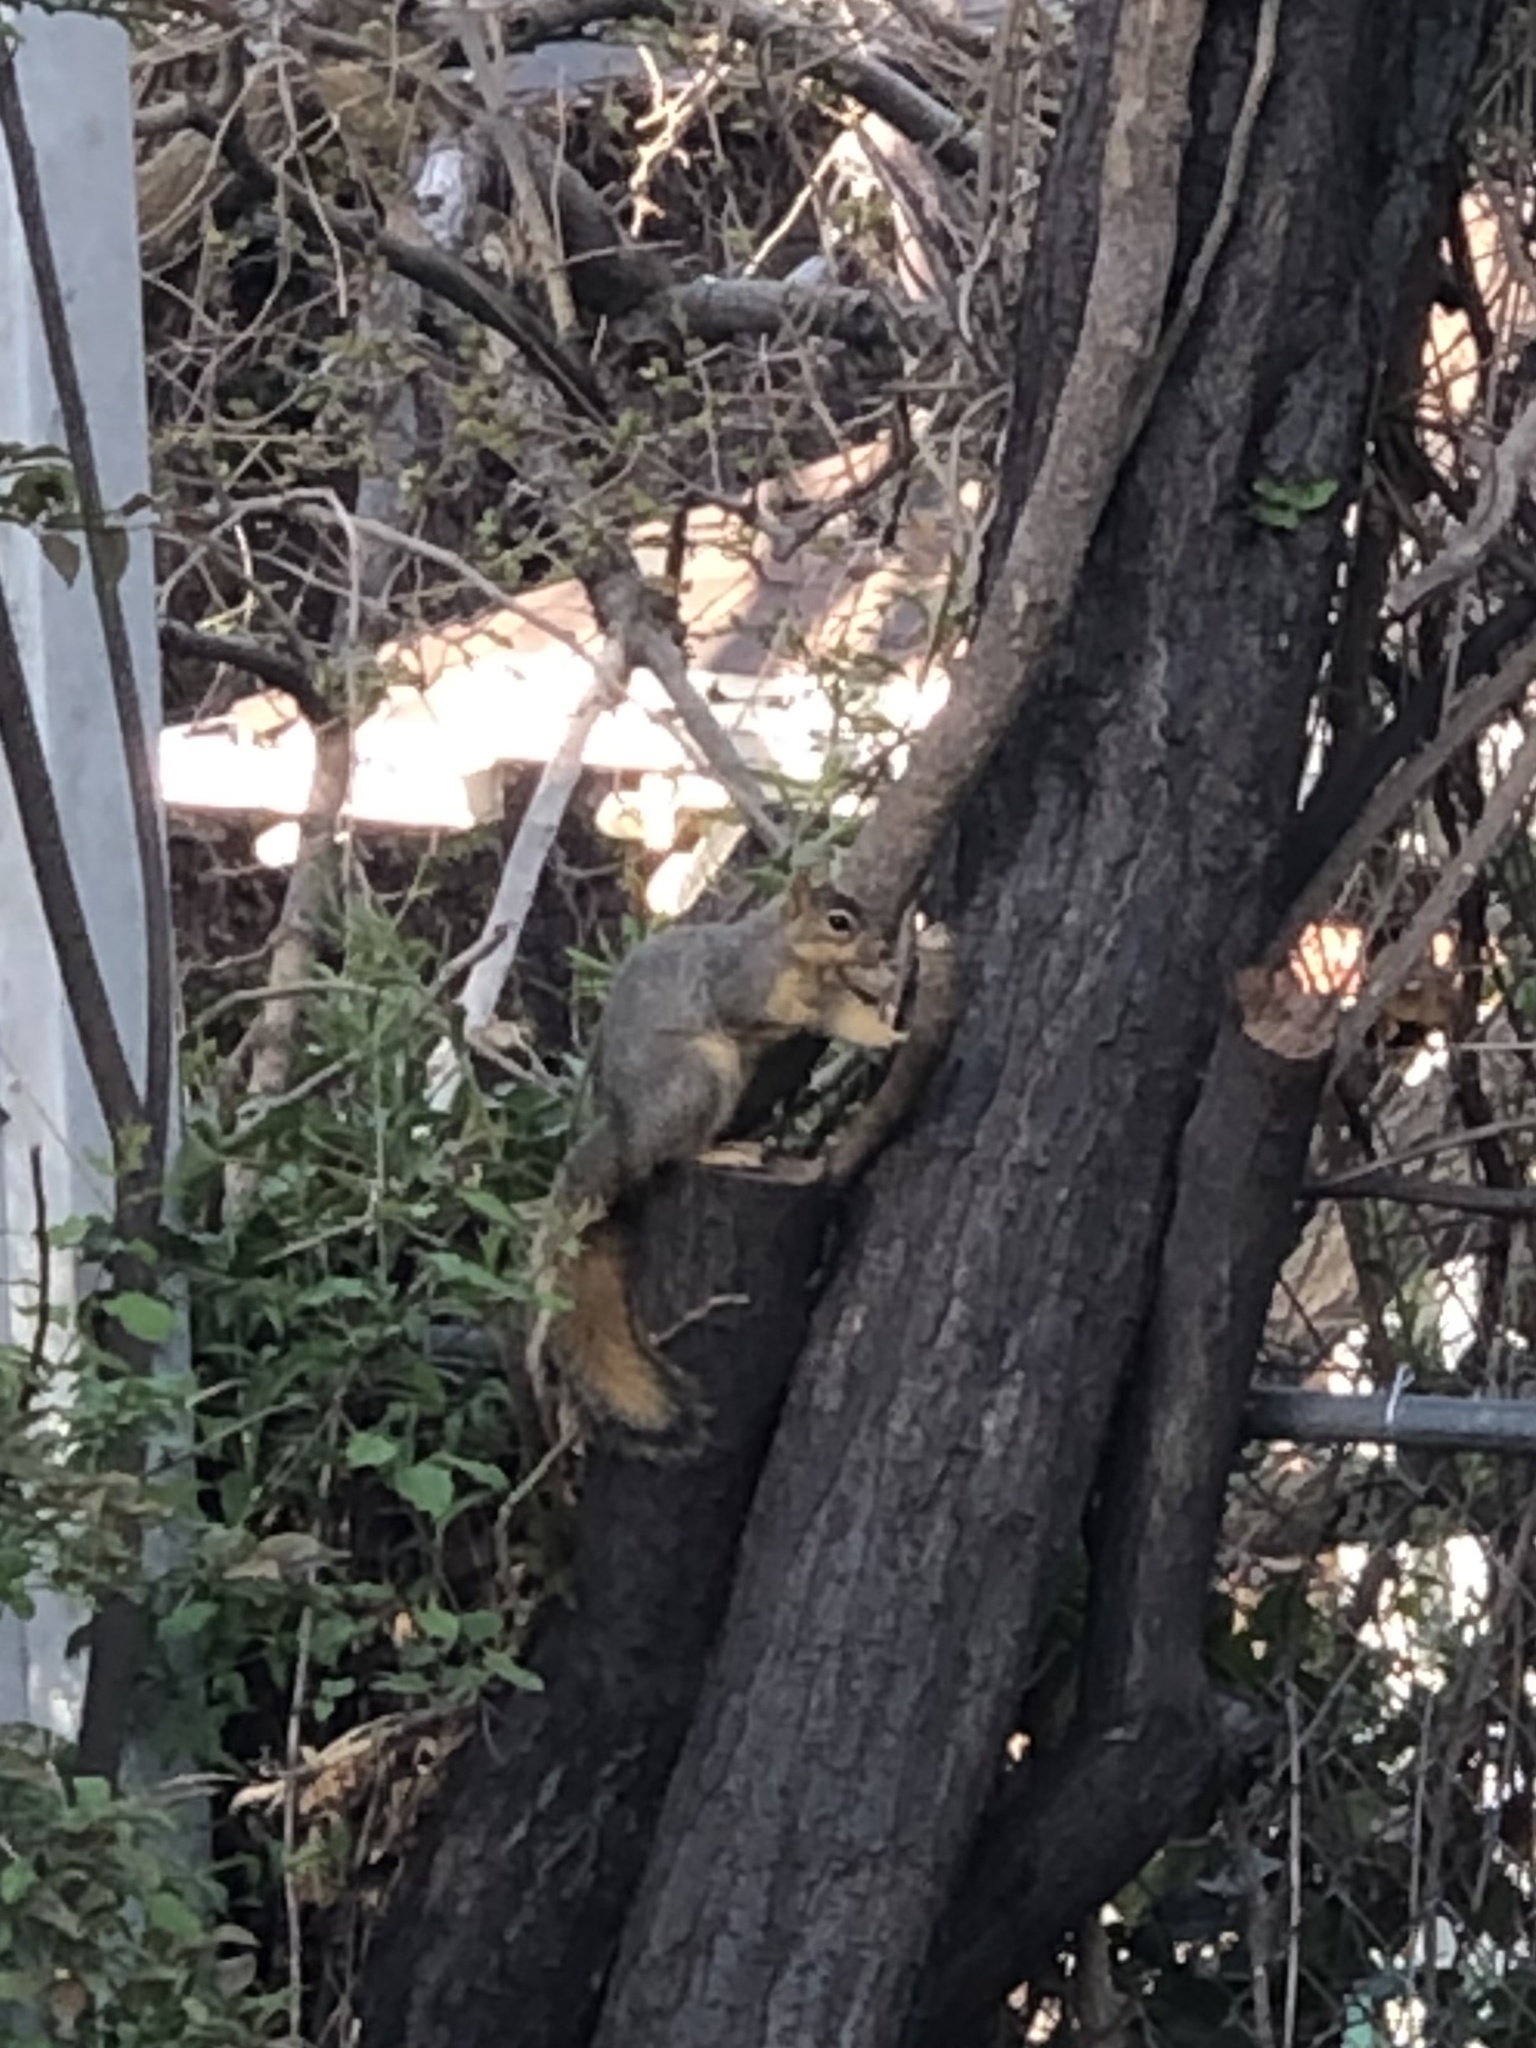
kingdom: Animalia
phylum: Chordata
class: Mammalia
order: Rodentia
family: Sciuridae
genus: Sciurus
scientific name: Sciurus niger
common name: Fox squirrel
